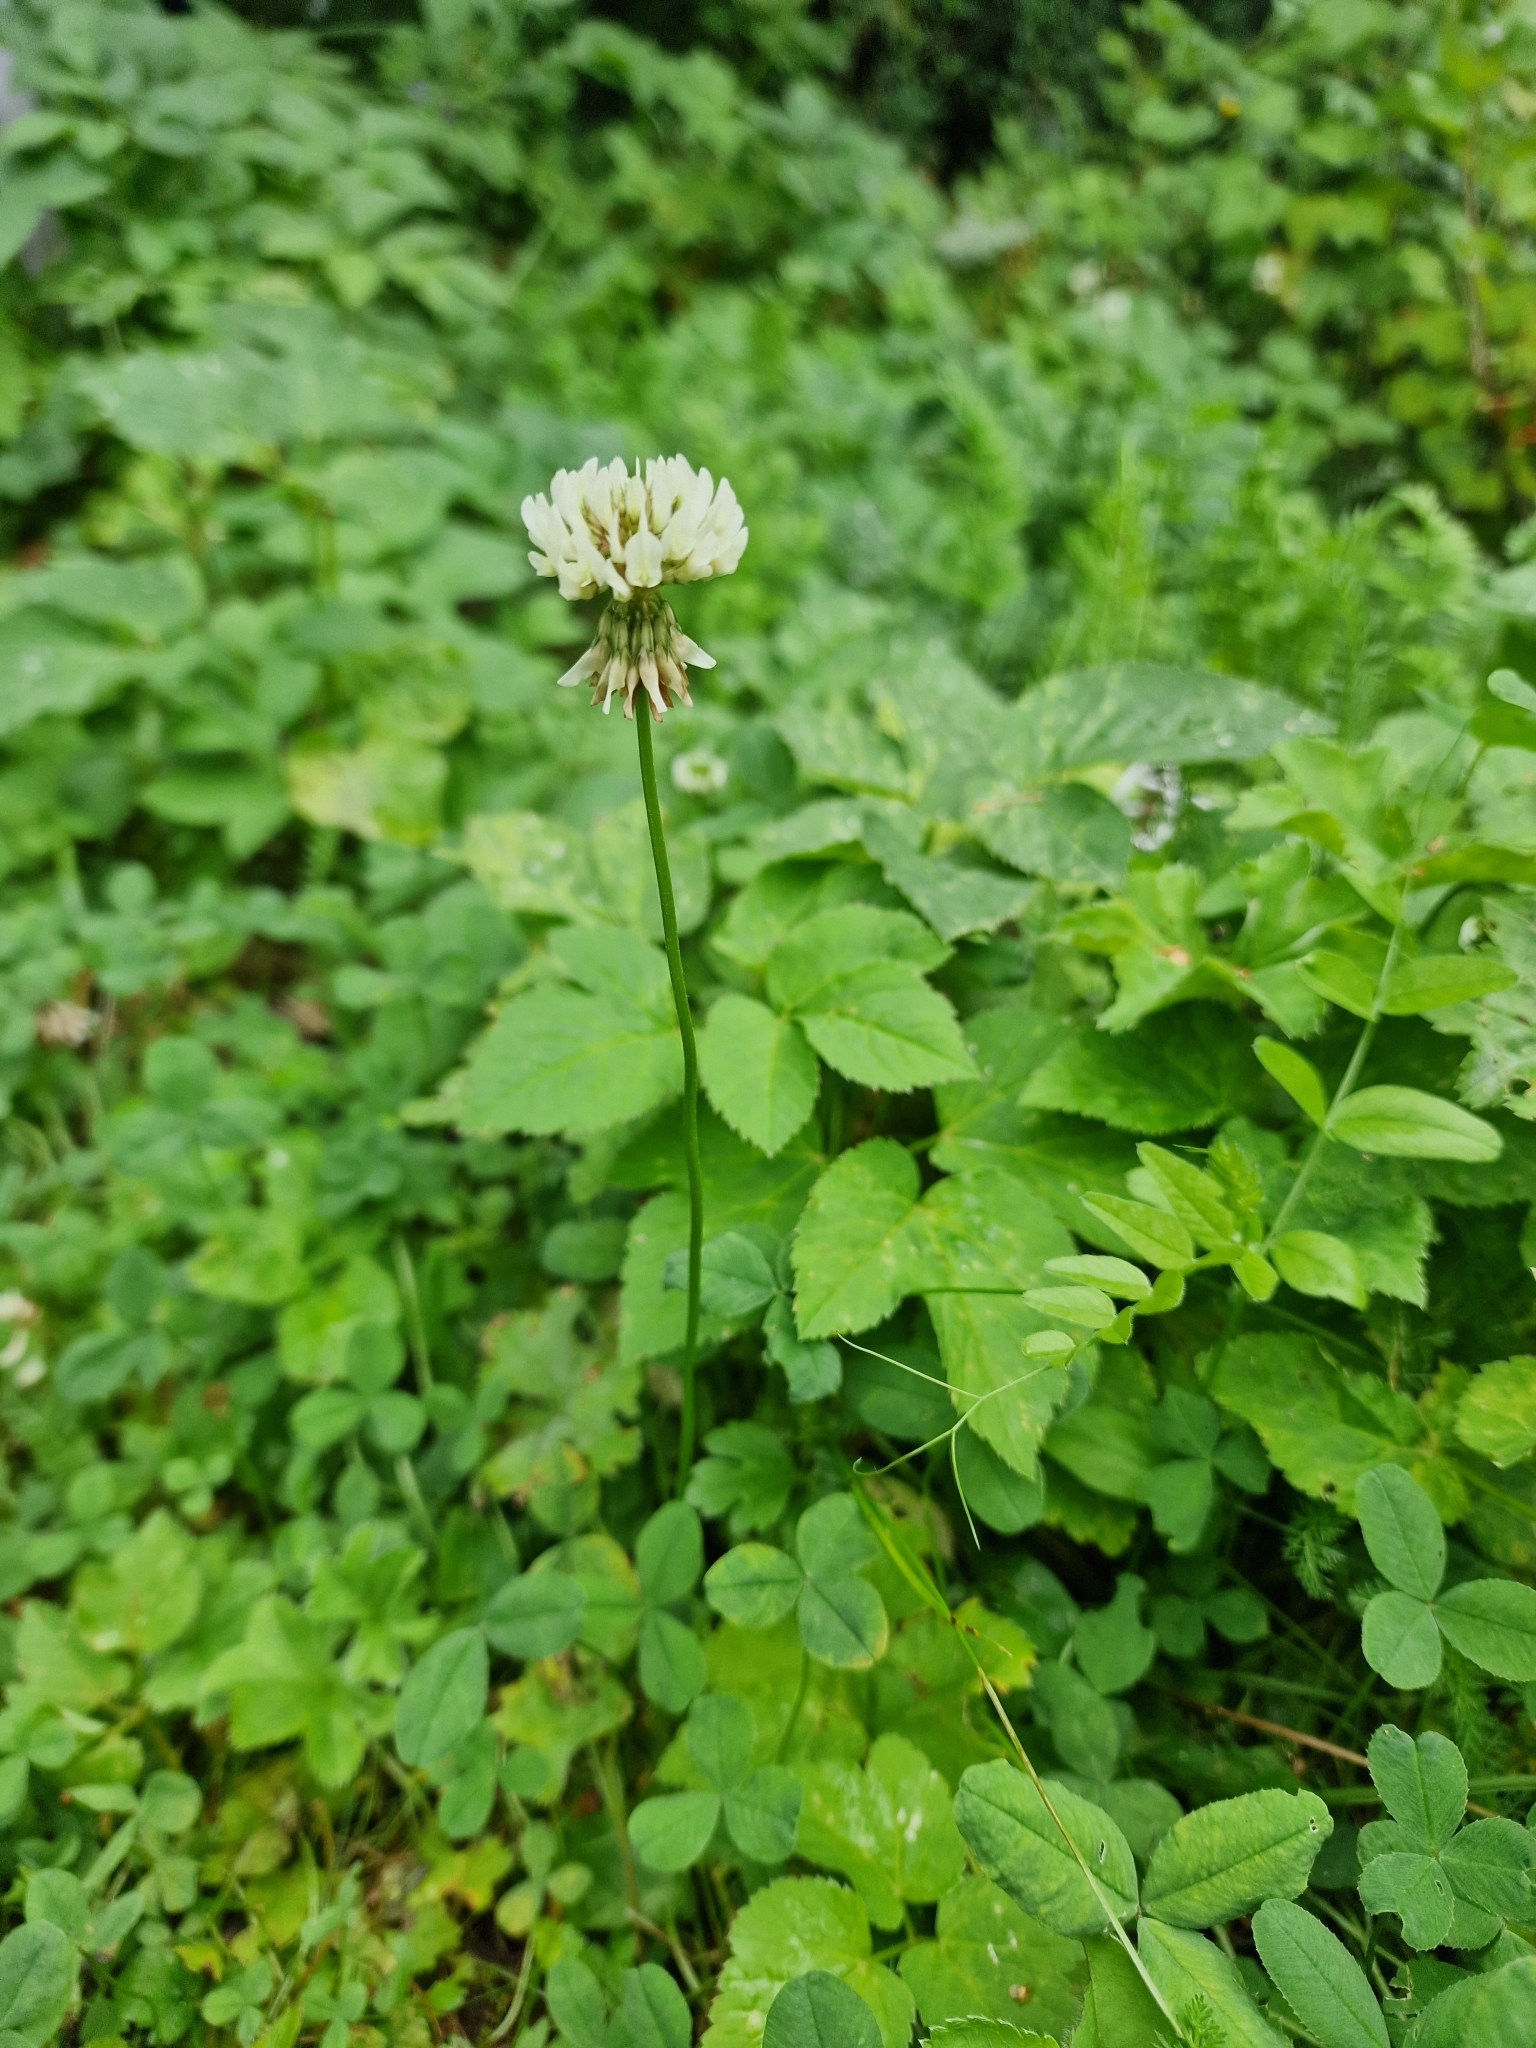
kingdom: Plantae
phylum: Tracheophyta
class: Magnoliopsida
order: Fabales
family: Fabaceae
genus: Trifolium
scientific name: Trifolium repens
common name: White clover
